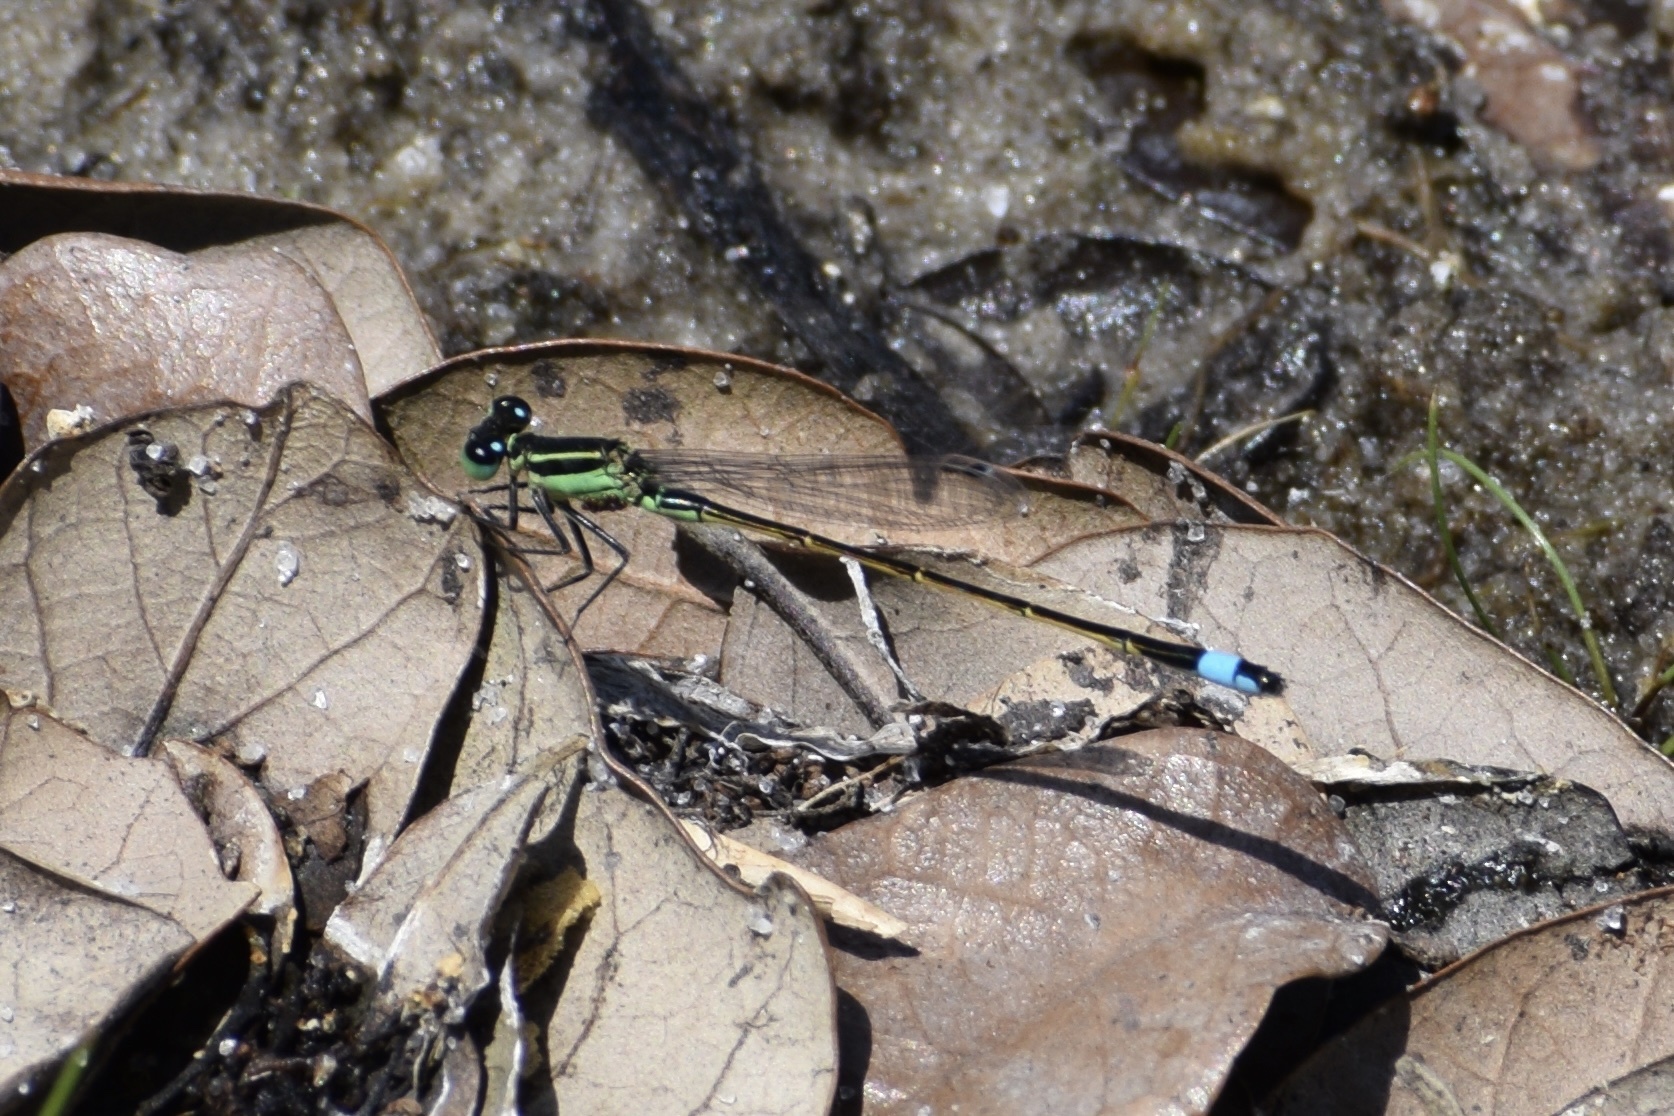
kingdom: Animalia
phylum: Arthropoda
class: Insecta
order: Odonata
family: Coenagrionidae
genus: Ischnura
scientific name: Ischnura ramburii
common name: Rambur's forktail
